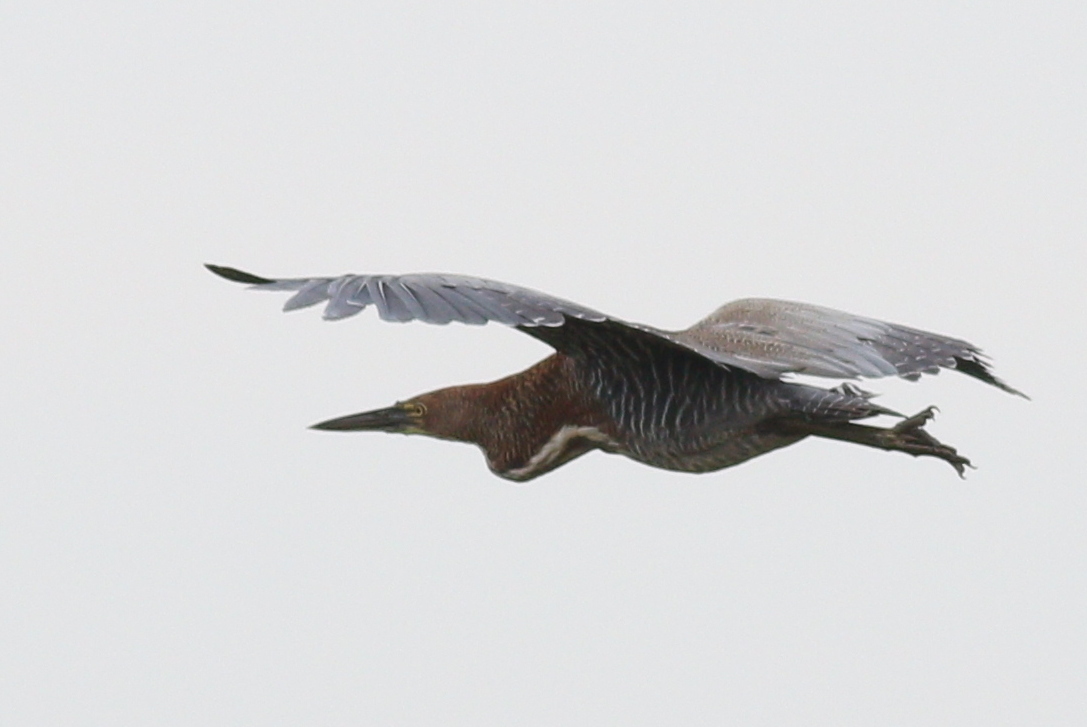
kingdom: Animalia
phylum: Chordata
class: Aves
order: Pelecaniformes
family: Ardeidae
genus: Tigrisoma
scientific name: Tigrisoma lineatum
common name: Rufescent tiger-heron
